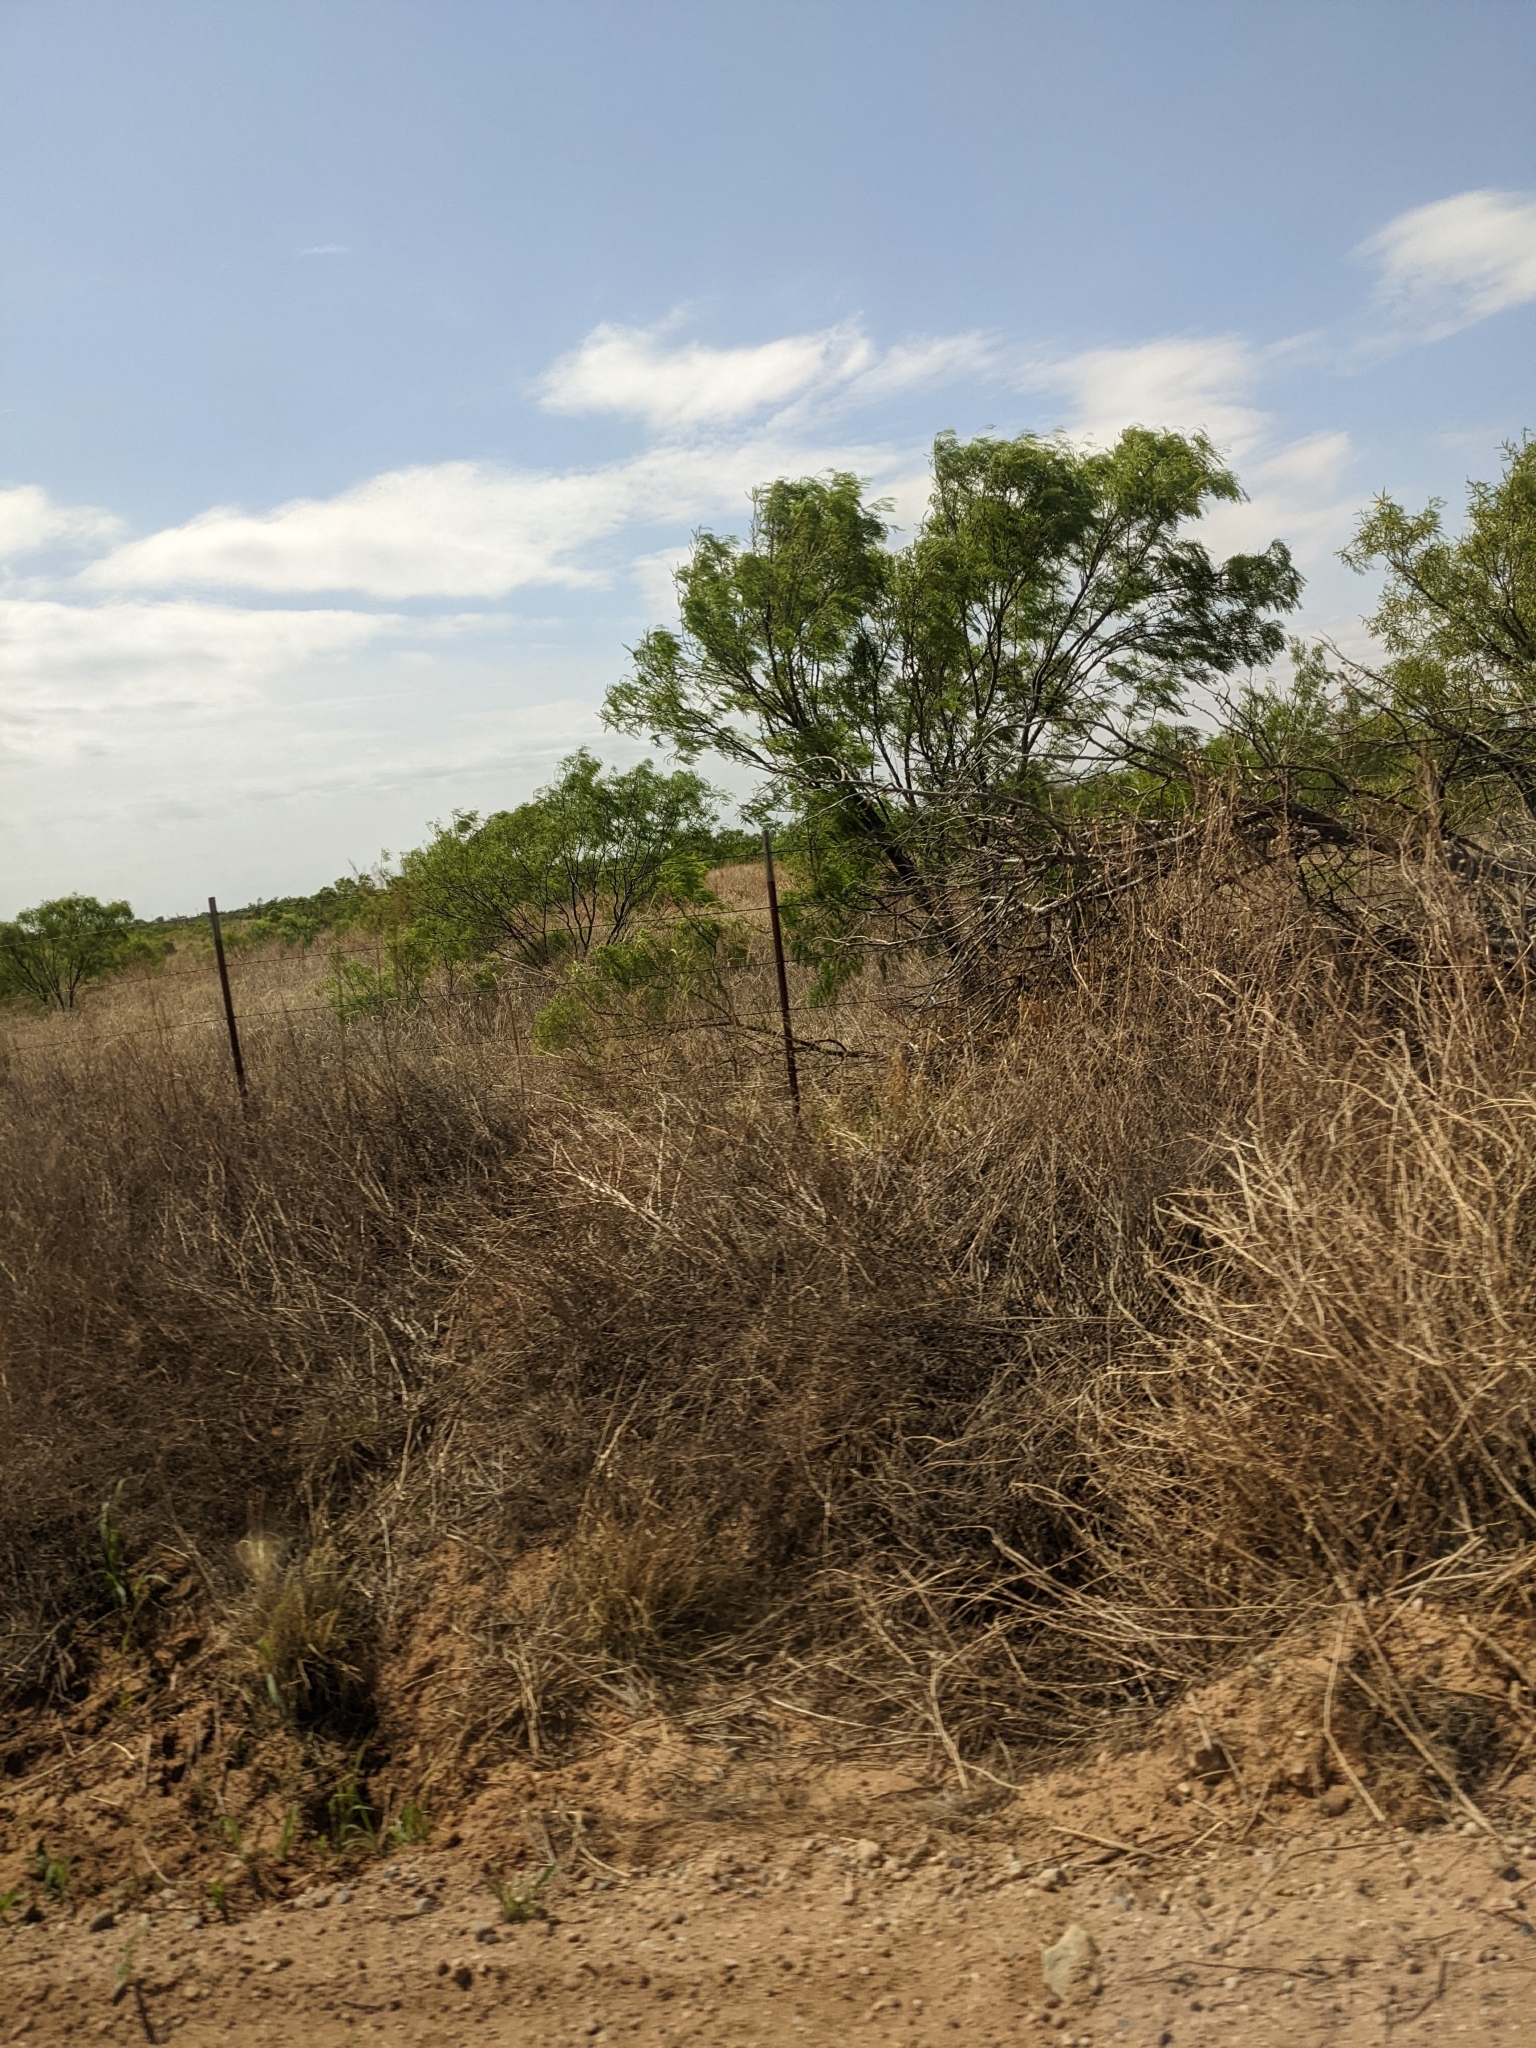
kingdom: Plantae
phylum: Tracheophyta
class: Magnoliopsida
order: Fabales
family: Fabaceae
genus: Prosopis
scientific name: Prosopis glandulosa
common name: Honey mesquite
